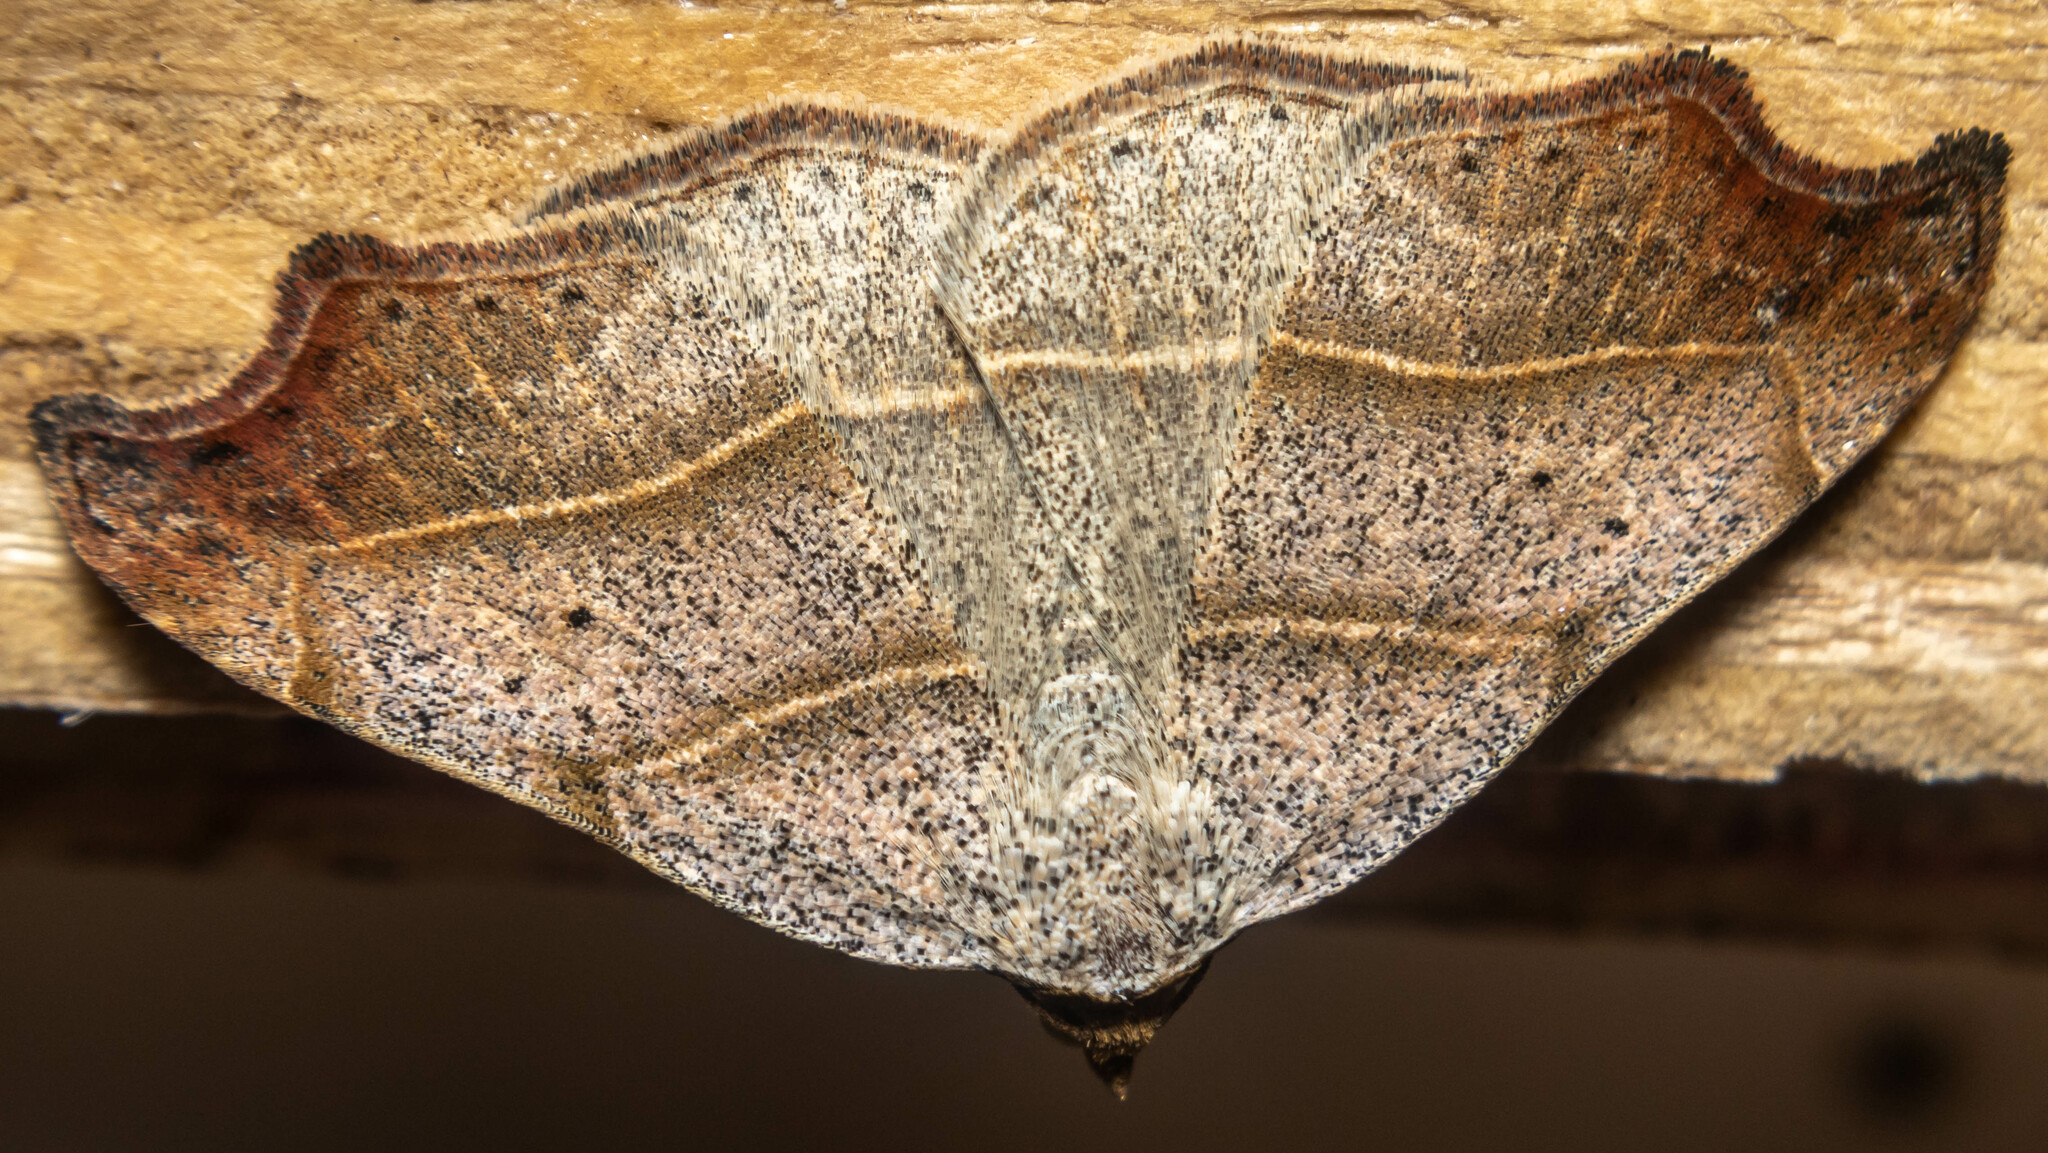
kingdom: Animalia
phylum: Arthropoda
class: Insecta
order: Lepidoptera
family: Erebidae
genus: Laspeyria
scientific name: Laspeyria flexula
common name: Beautiful hook-tip
